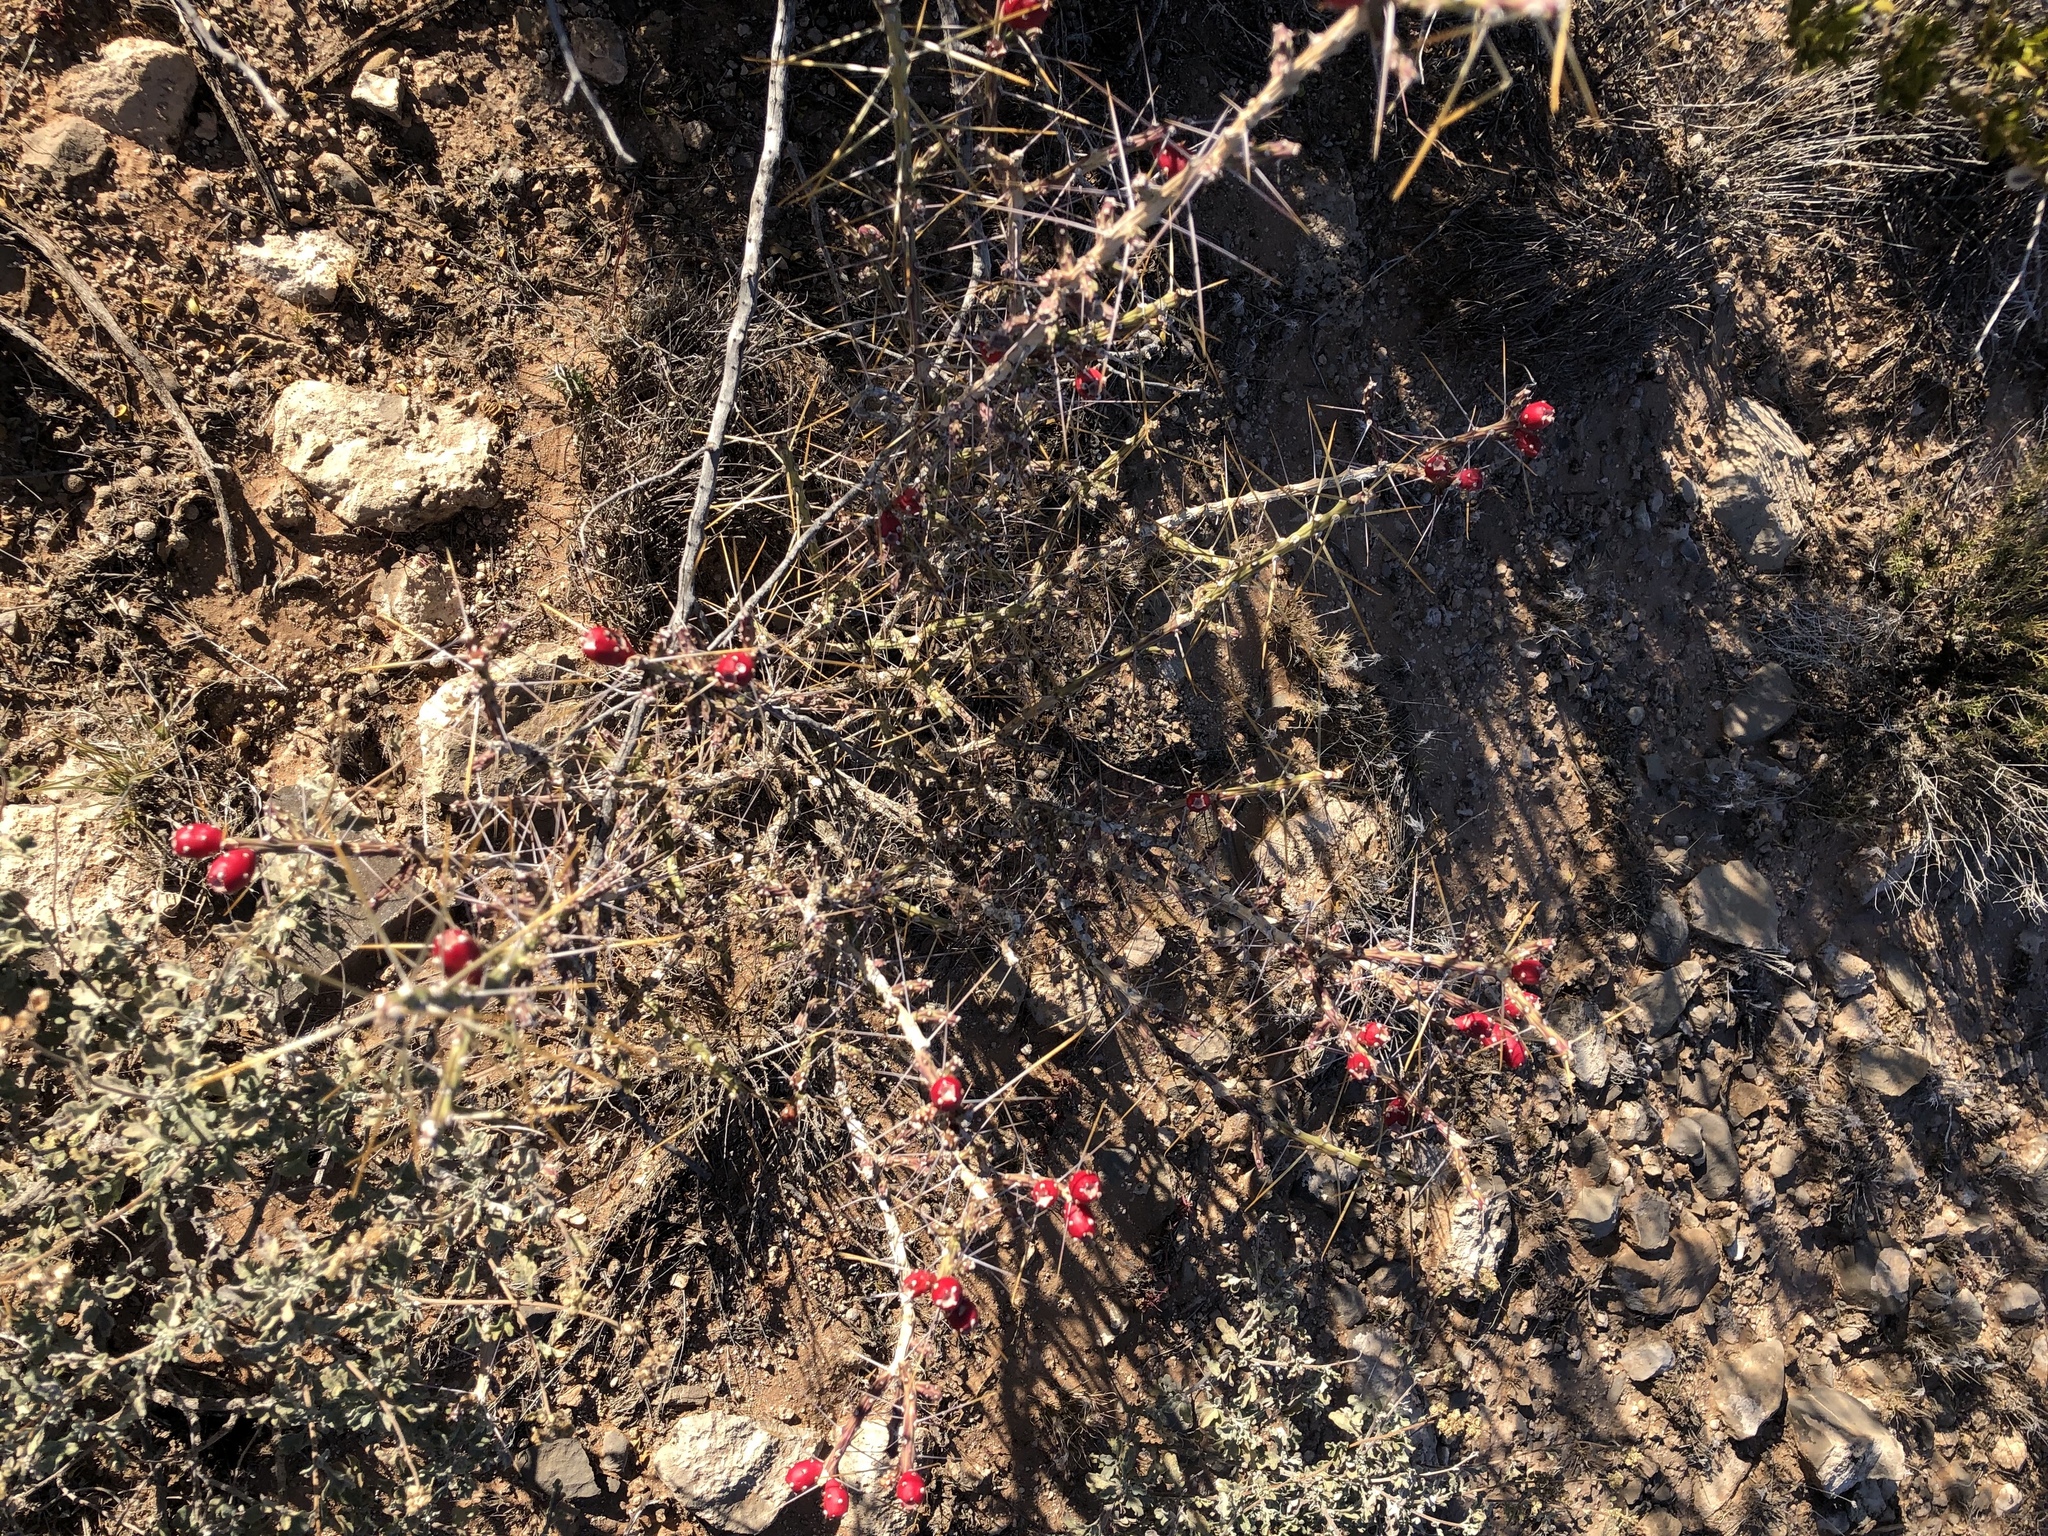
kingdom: Plantae
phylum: Tracheophyta
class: Magnoliopsida
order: Caryophyllales
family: Cactaceae
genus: Cylindropuntia
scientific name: Cylindropuntia leptocaulis
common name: Christmas cactus
